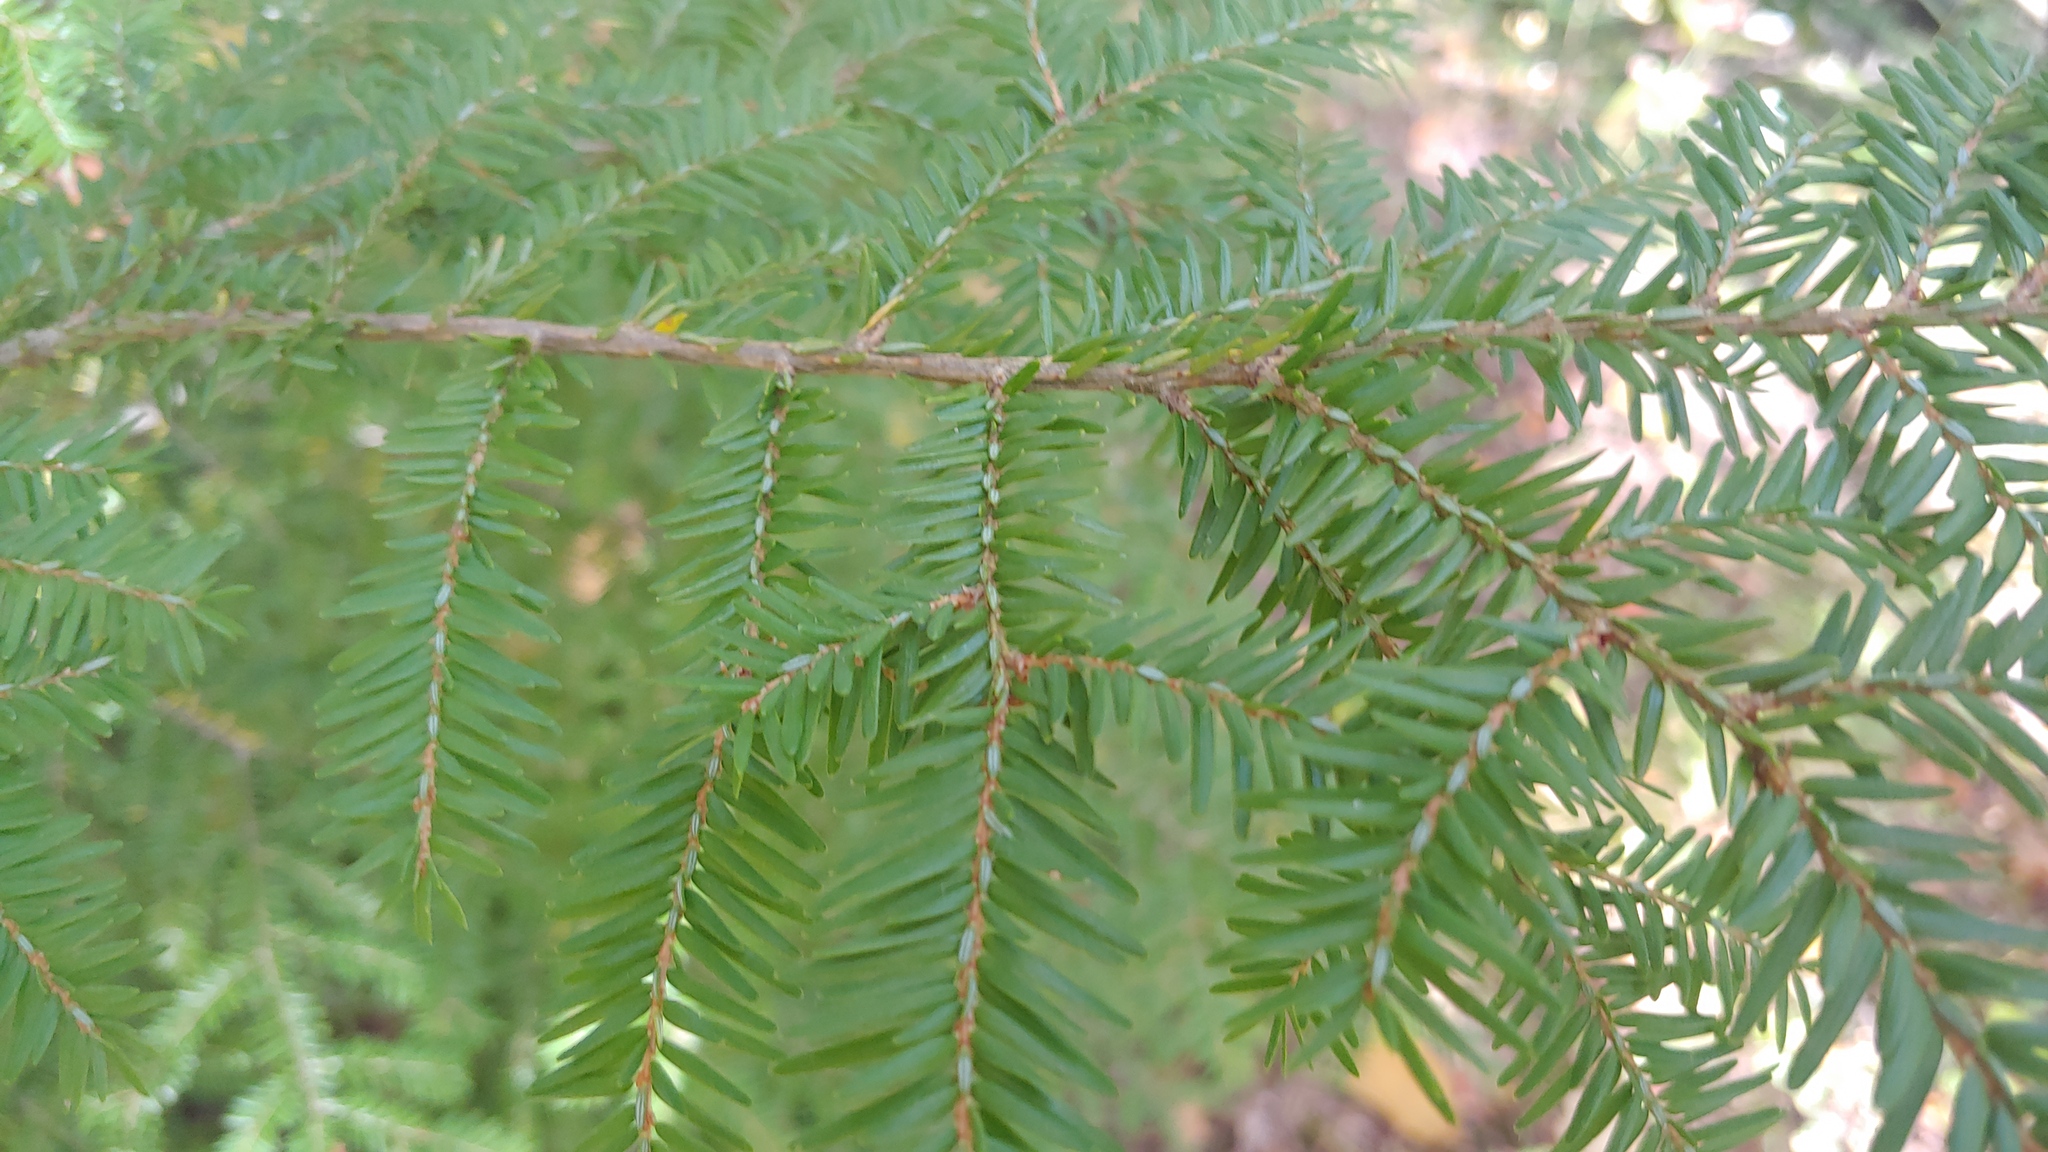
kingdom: Plantae
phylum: Tracheophyta
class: Pinopsida
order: Pinales
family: Pinaceae
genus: Tsuga
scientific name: Tsuga canadensis
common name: Eastern hemlock
